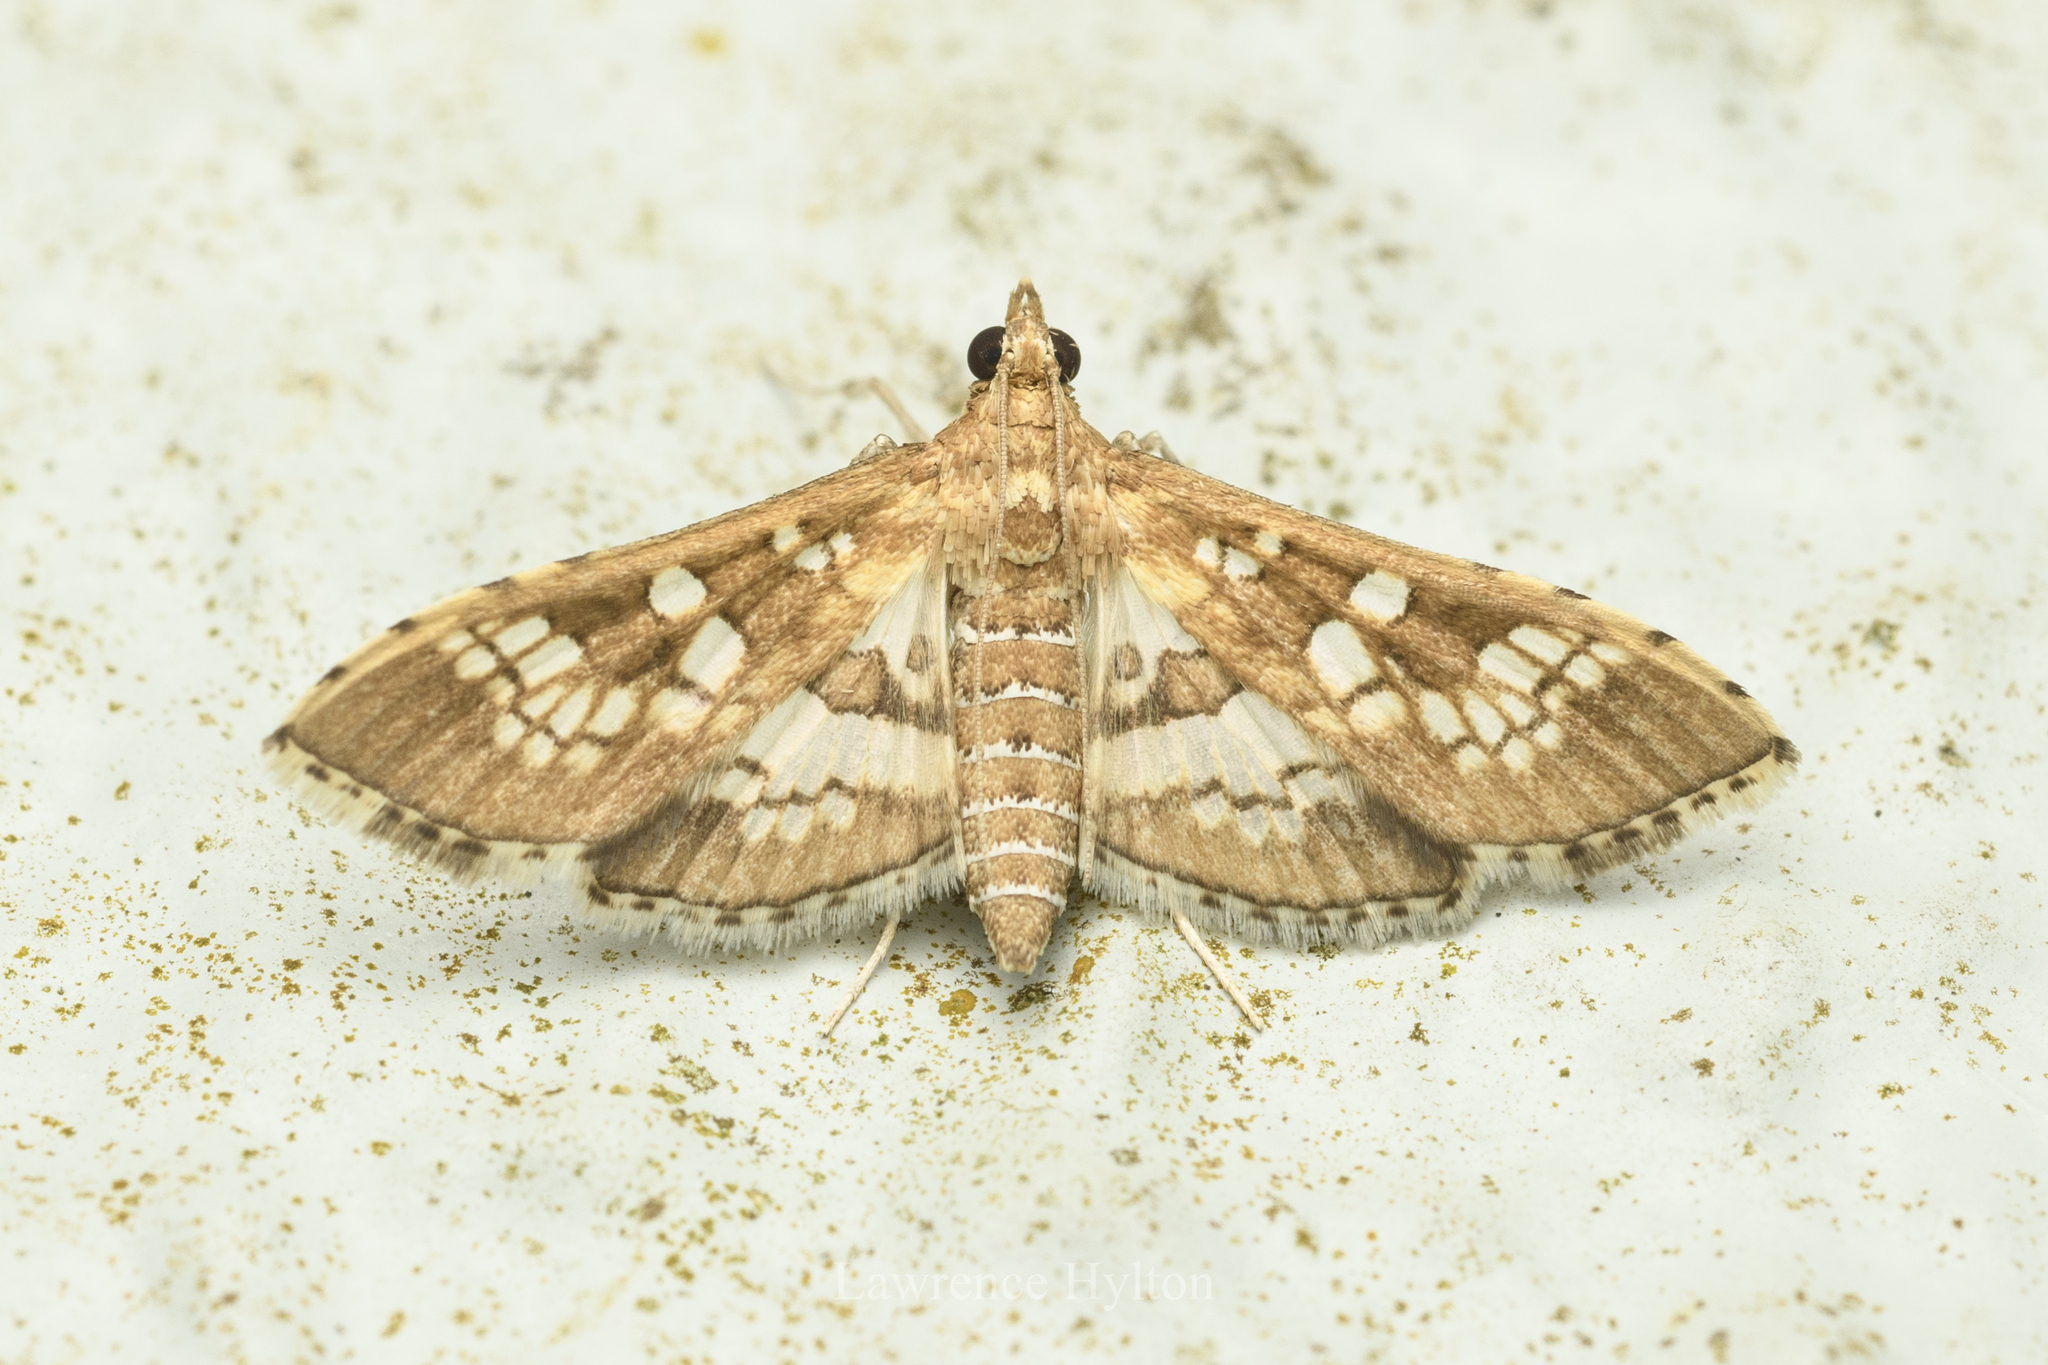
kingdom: Animalia
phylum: Arthropoda
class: Insecta
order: Lepidoptera
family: Crambidae
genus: Sameodes
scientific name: Sameodes cancellalis
